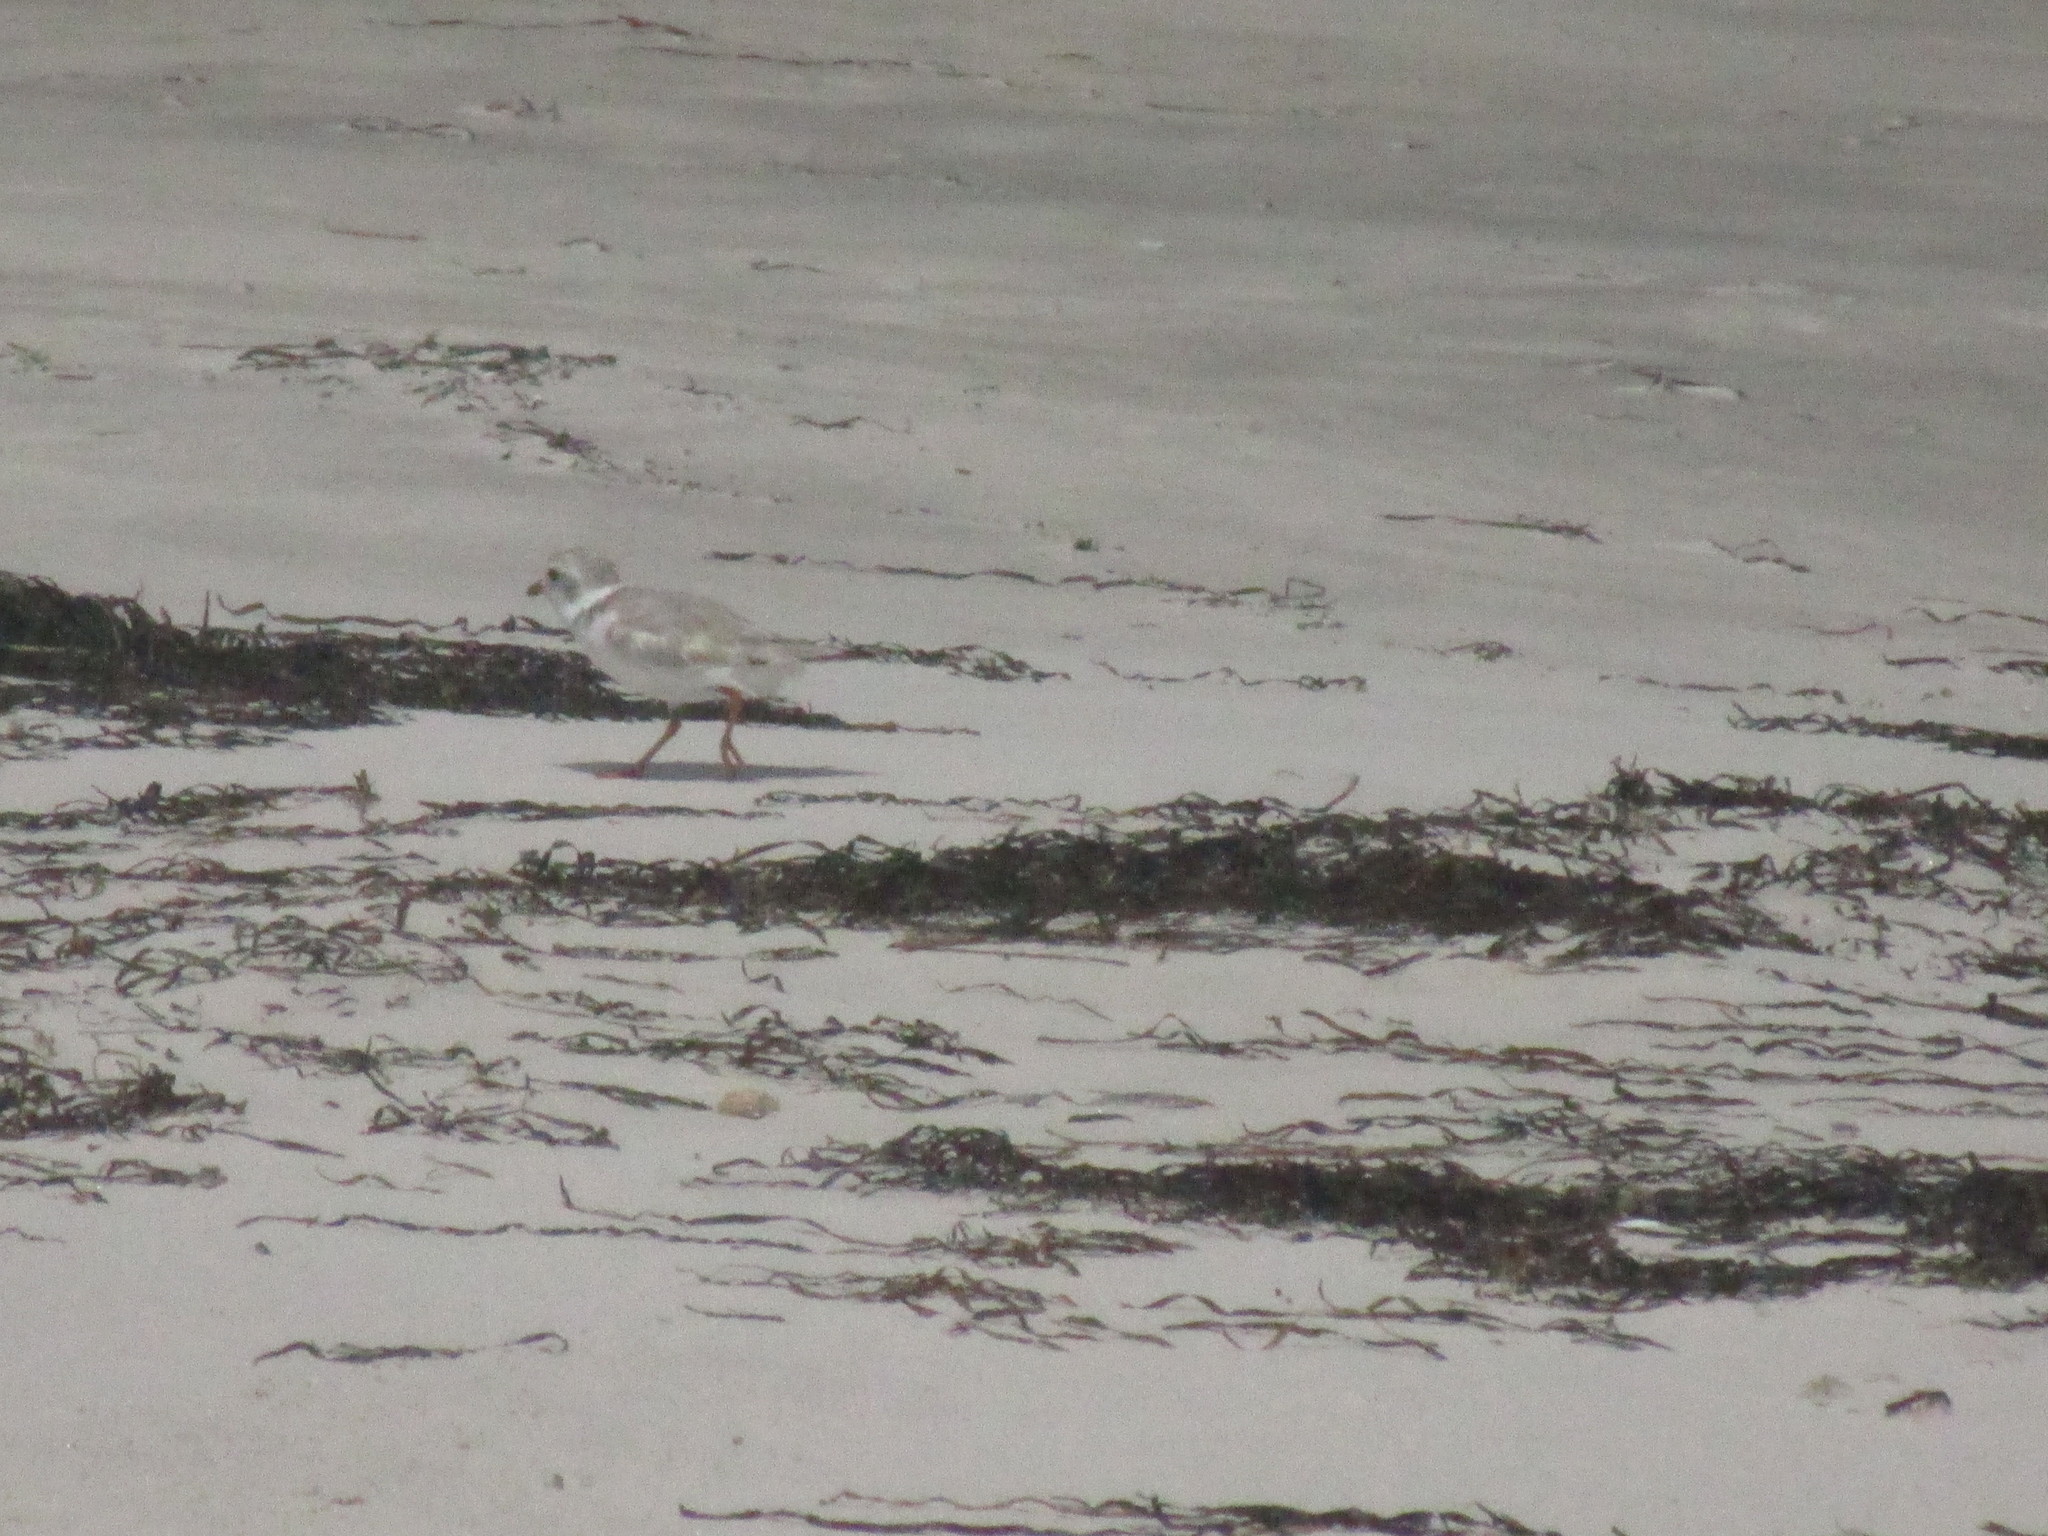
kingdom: Animalia
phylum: Chordata
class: Aves
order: Charadriiformes
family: Charadriidae
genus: Charadrius
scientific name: Charadrius melodus
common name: Piping plover
